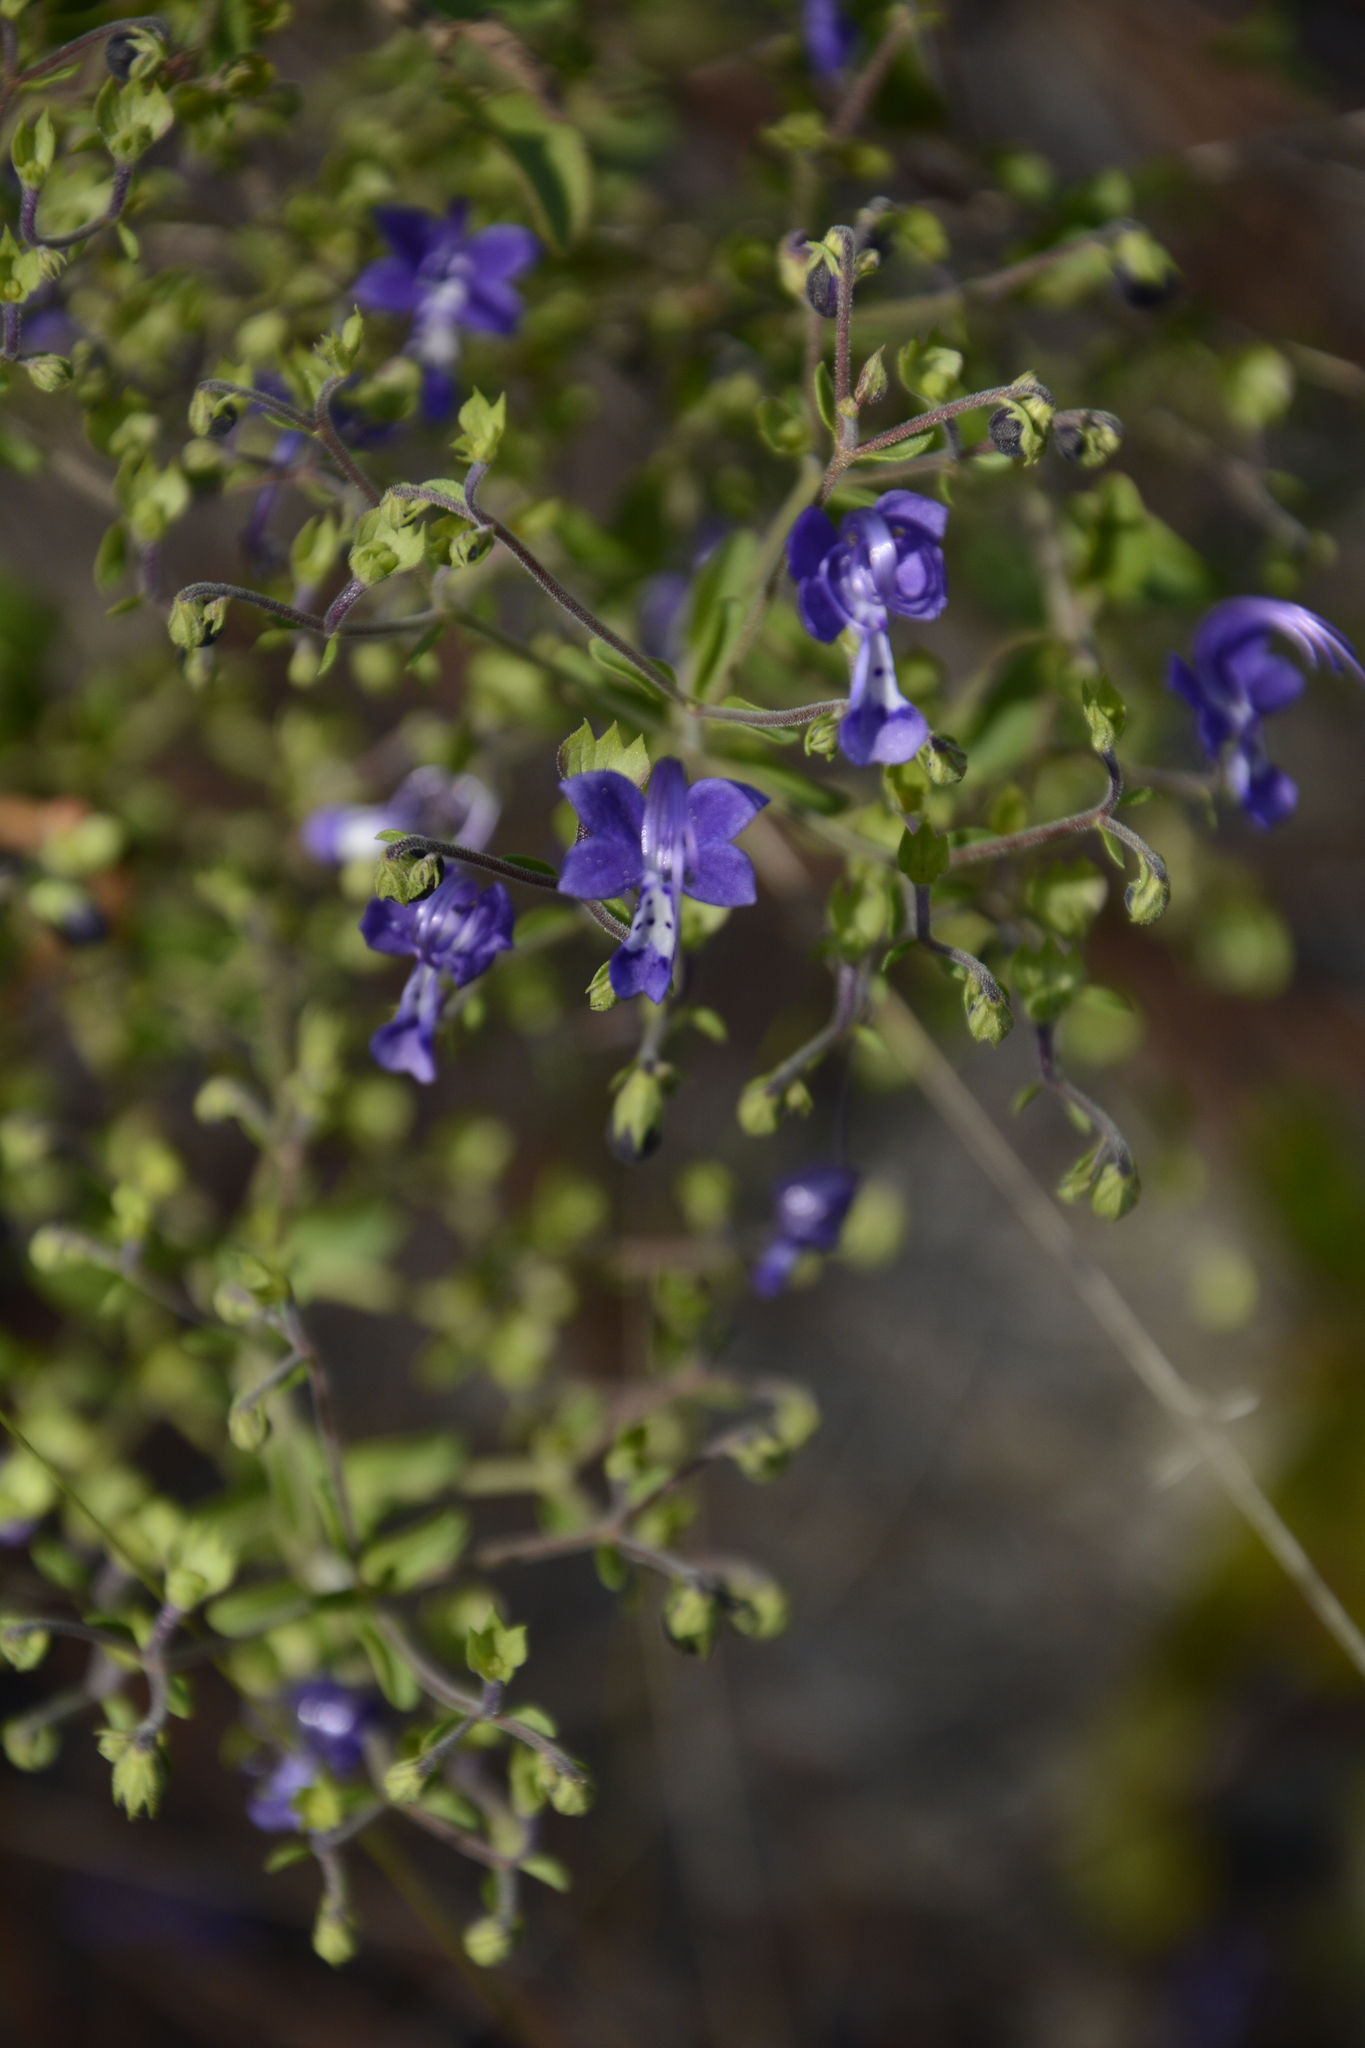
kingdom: Plantae
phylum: Tracheophyta
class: Magnoliopsida
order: Lamiales
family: Lamiaceae
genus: Trichostema
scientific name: Trichostema suffrutescens
